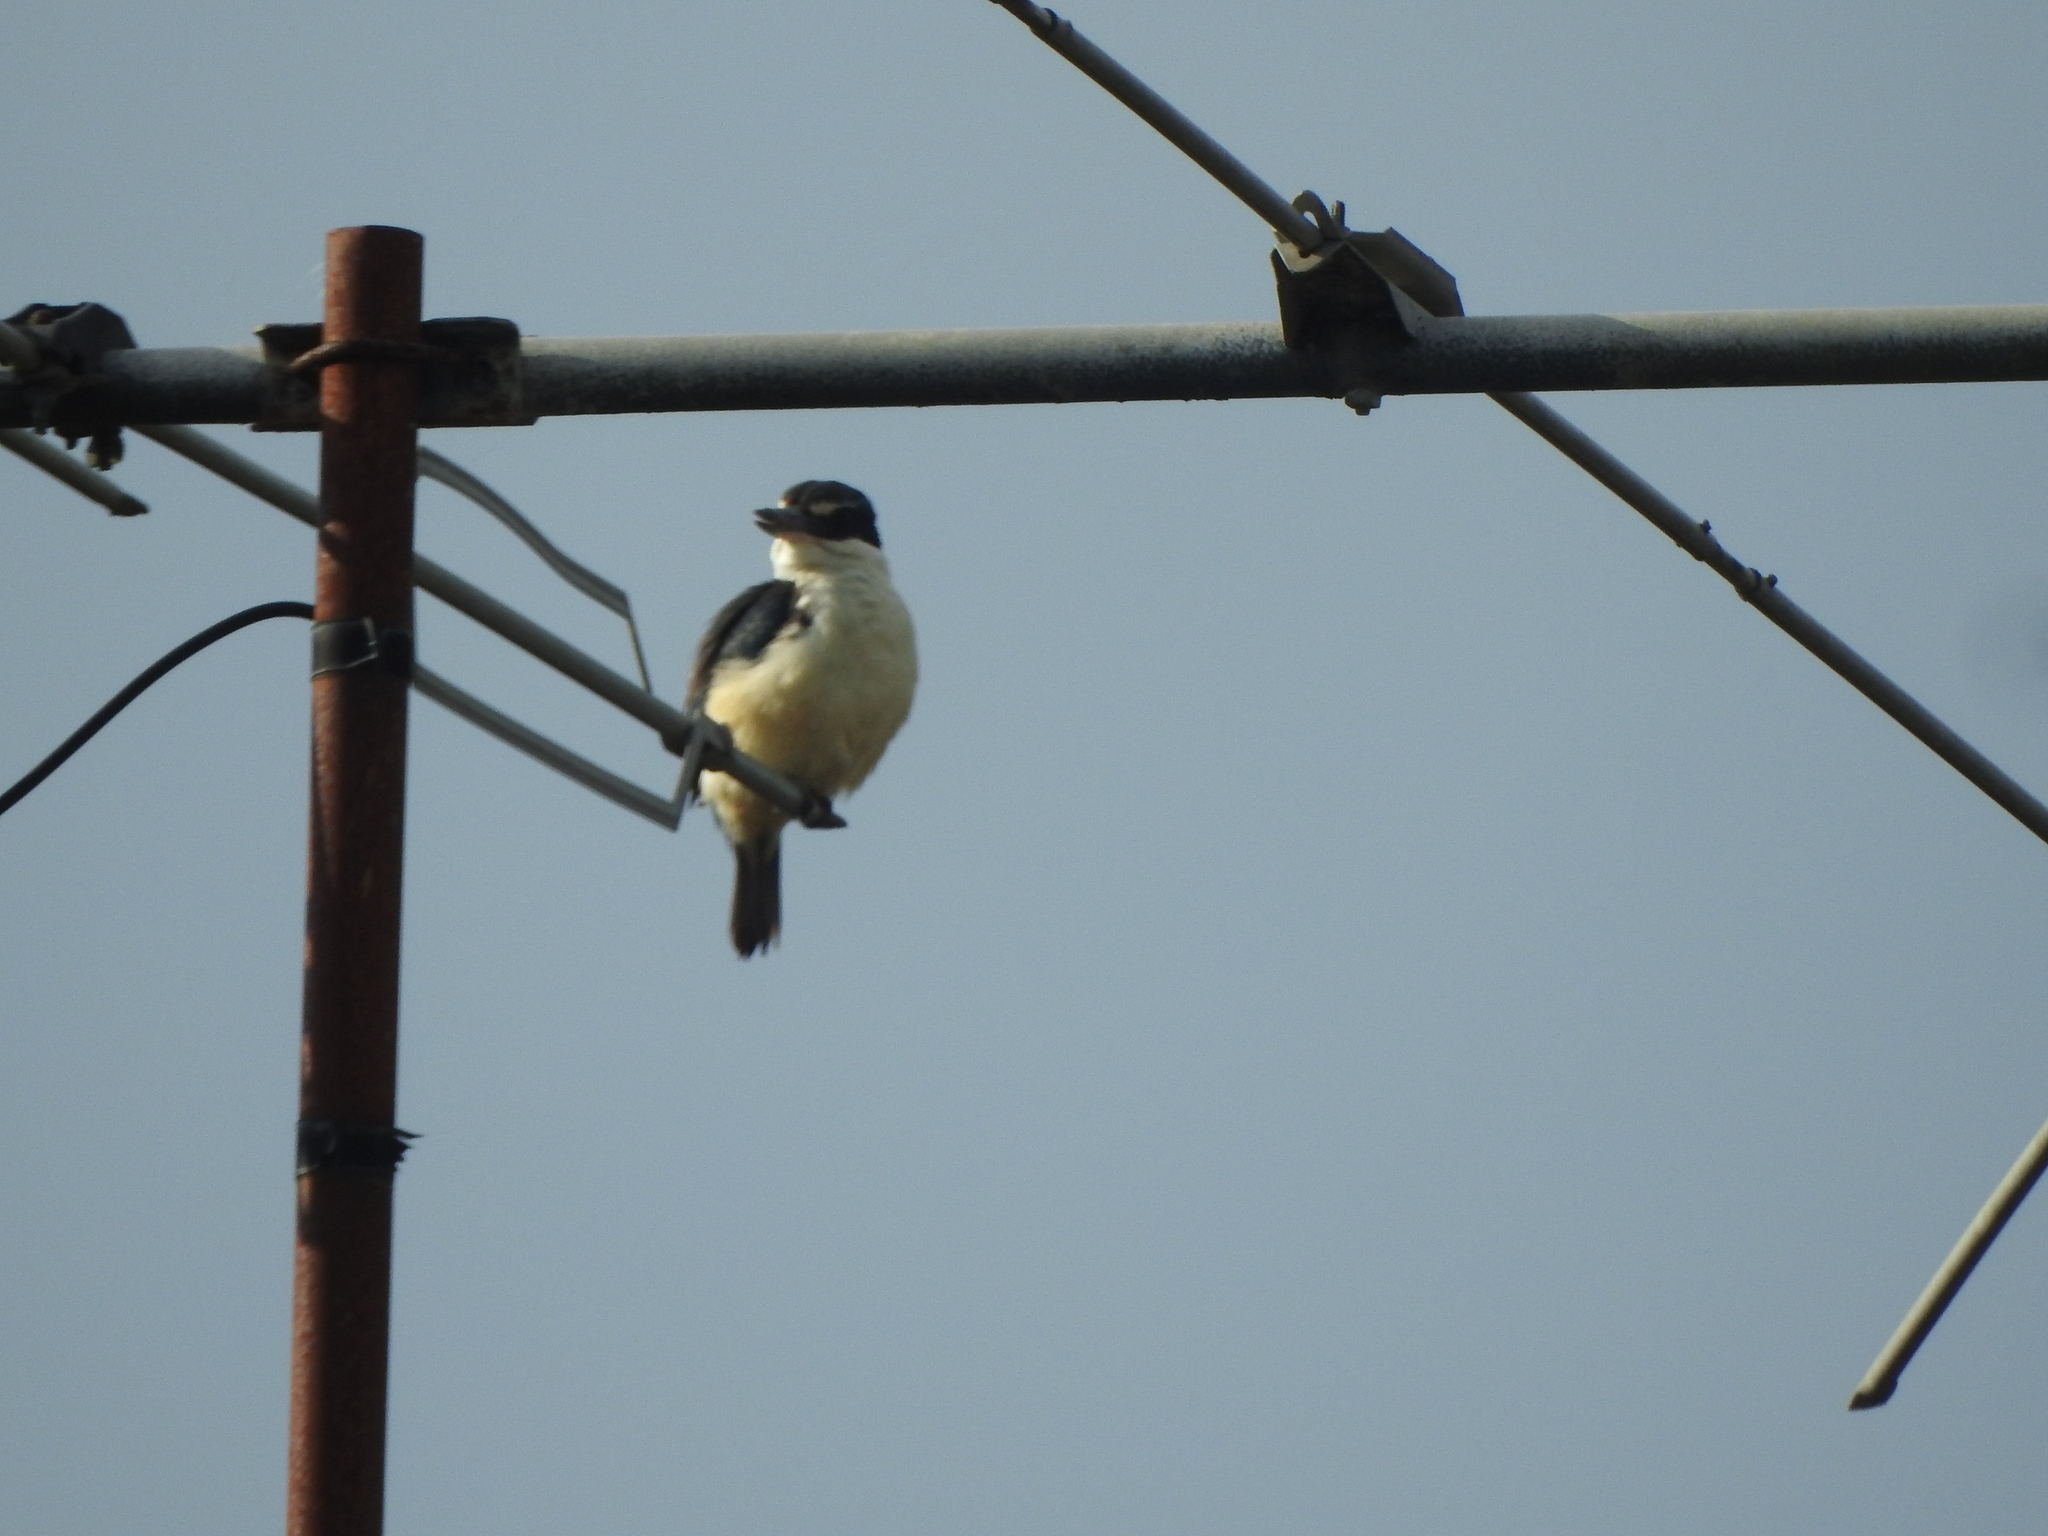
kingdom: Animalia
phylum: Chordata
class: Aves
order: Coraciiformes
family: Alcedinidae
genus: Todiramphus
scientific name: Todiramphus sanctus
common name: Sacred kingfisher
